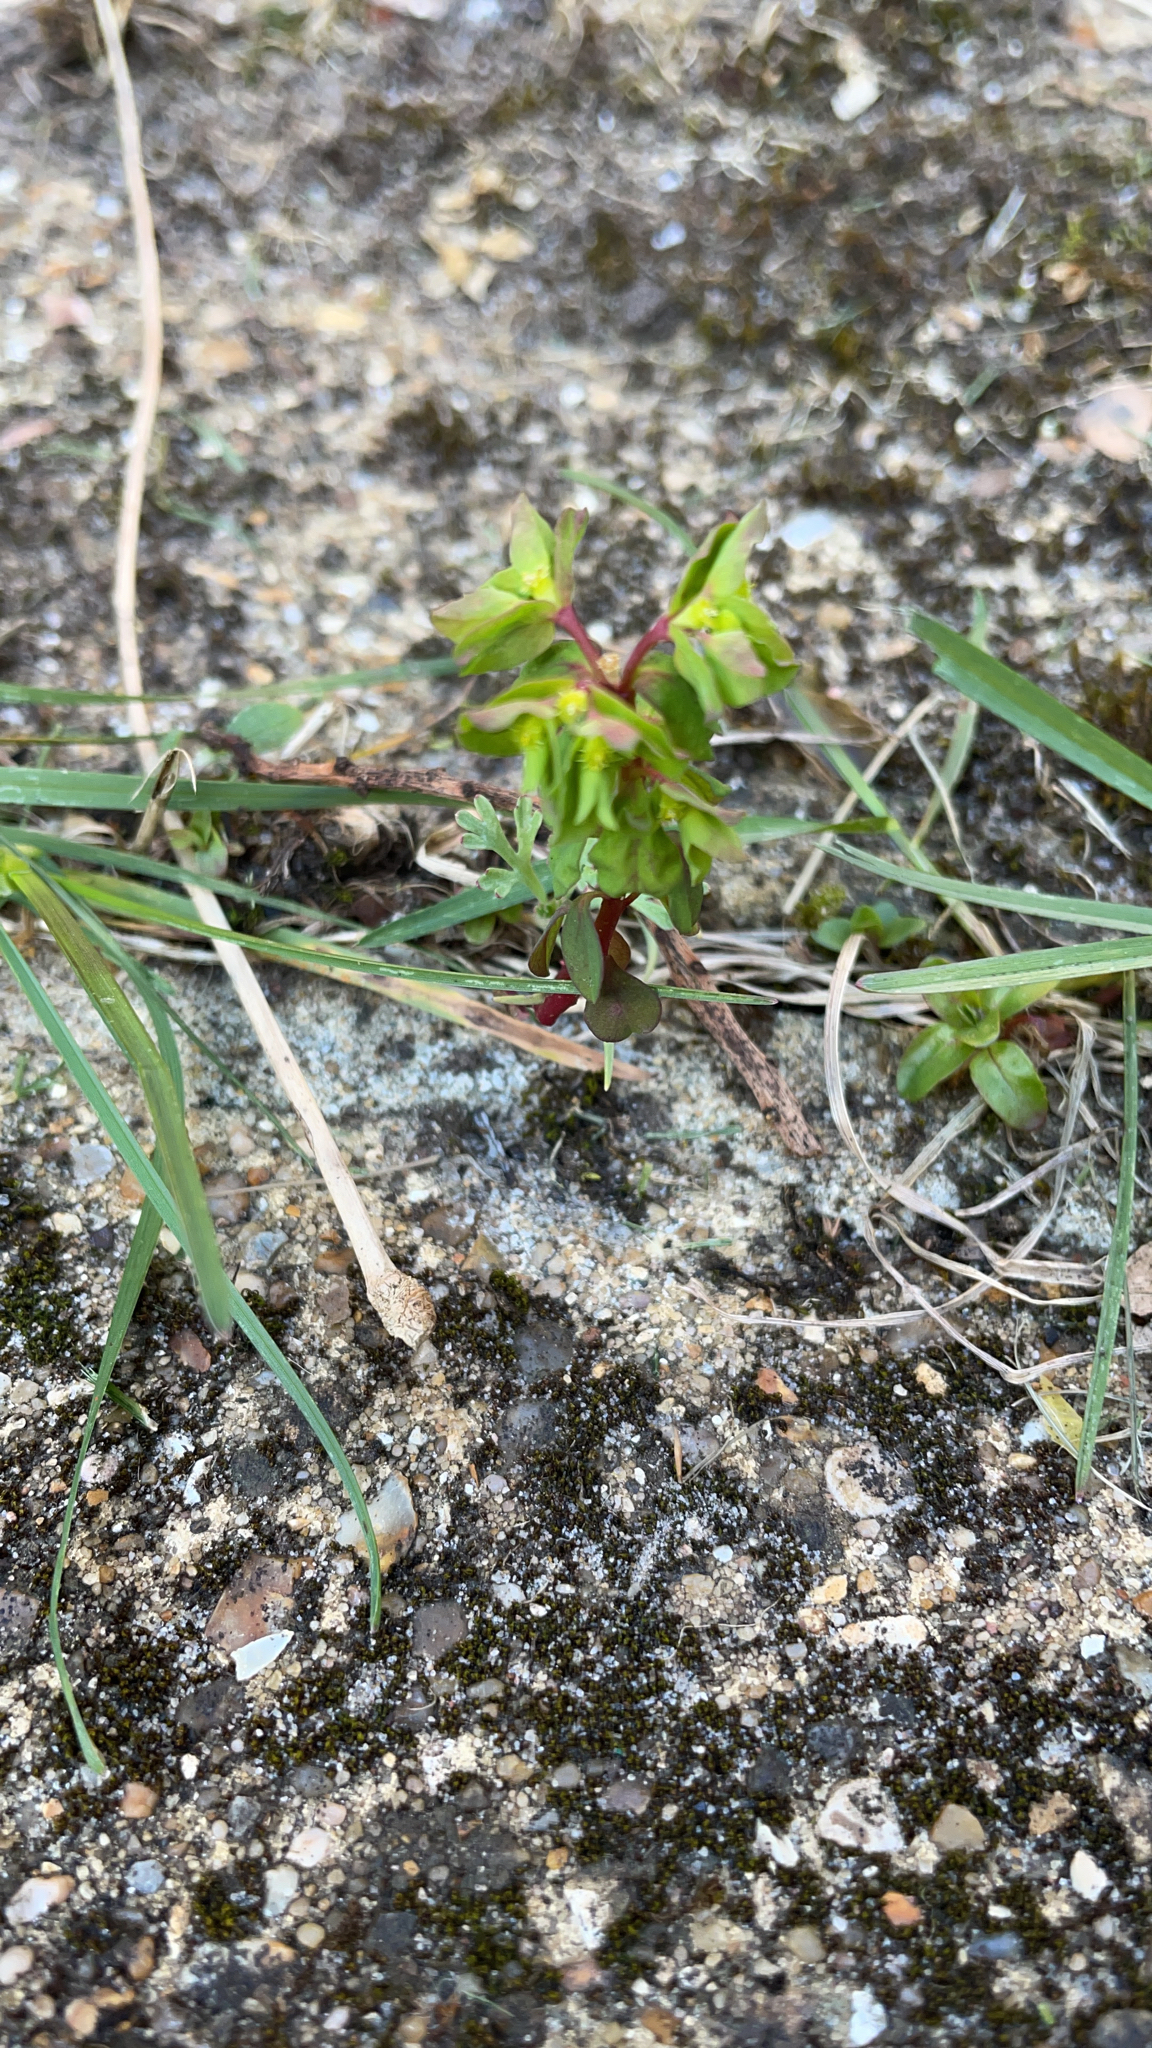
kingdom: Plantae
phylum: Tracheophyta
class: Magnoliopsida
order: Malpighiales
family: Euphorbiaceae
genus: Euphorbia
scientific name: Euphorbia peplus
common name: Petty spurge
